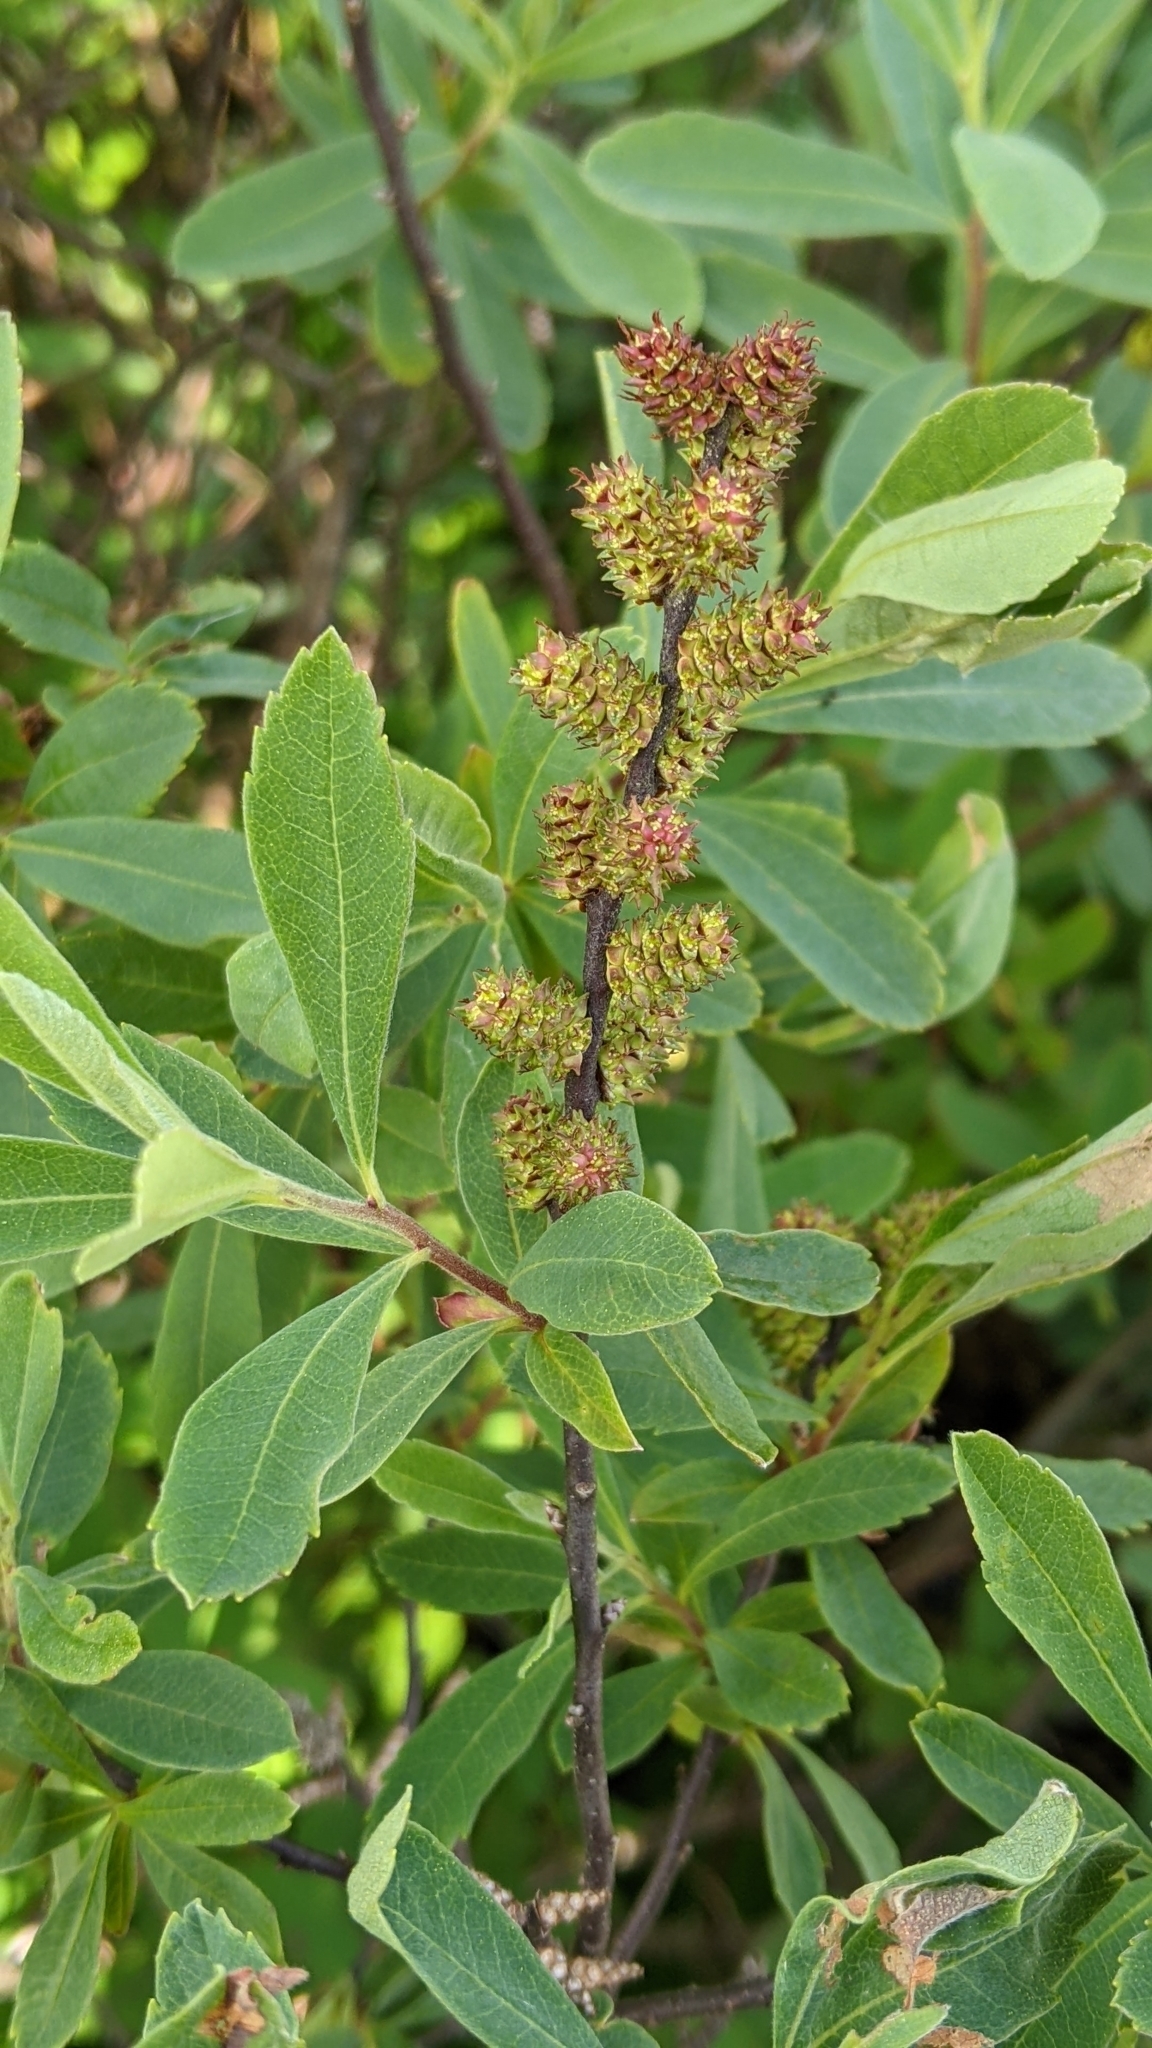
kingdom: Plantae
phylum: Tracheophyta
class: Magnoliopsida
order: Fagales
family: Myricaceae
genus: Myrica
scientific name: Myrica gale
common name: Sweet gale
